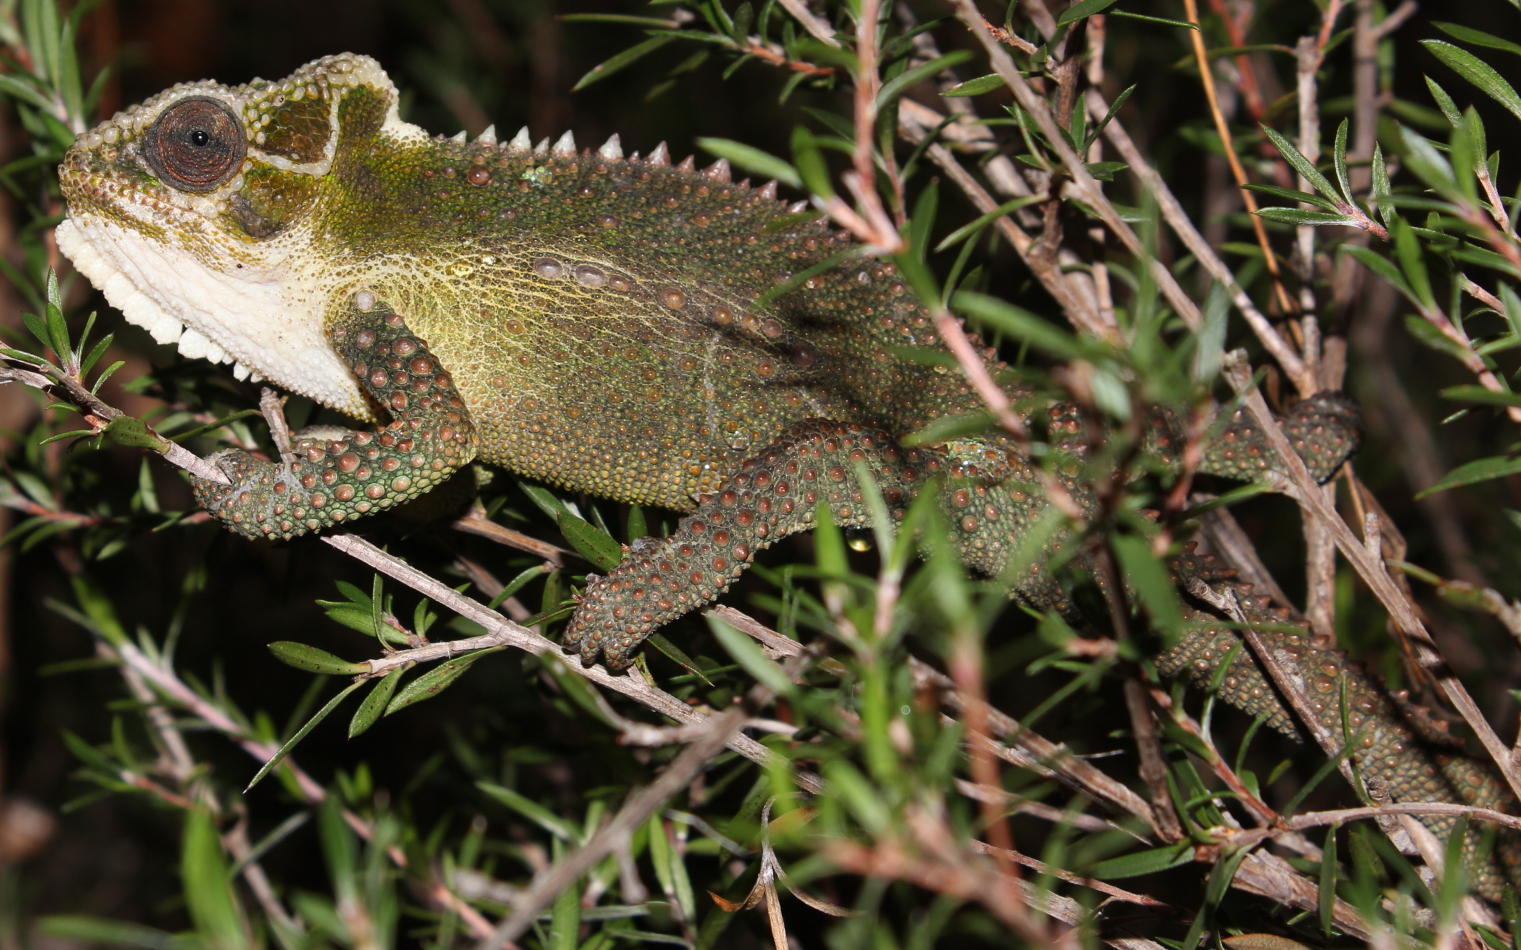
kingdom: Animalia
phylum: Chordata
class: Squamata
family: Chamaeleonidae
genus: Bradypodion
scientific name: Bradypodion thamnobates
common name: Natal midlands dwarf chameleon
